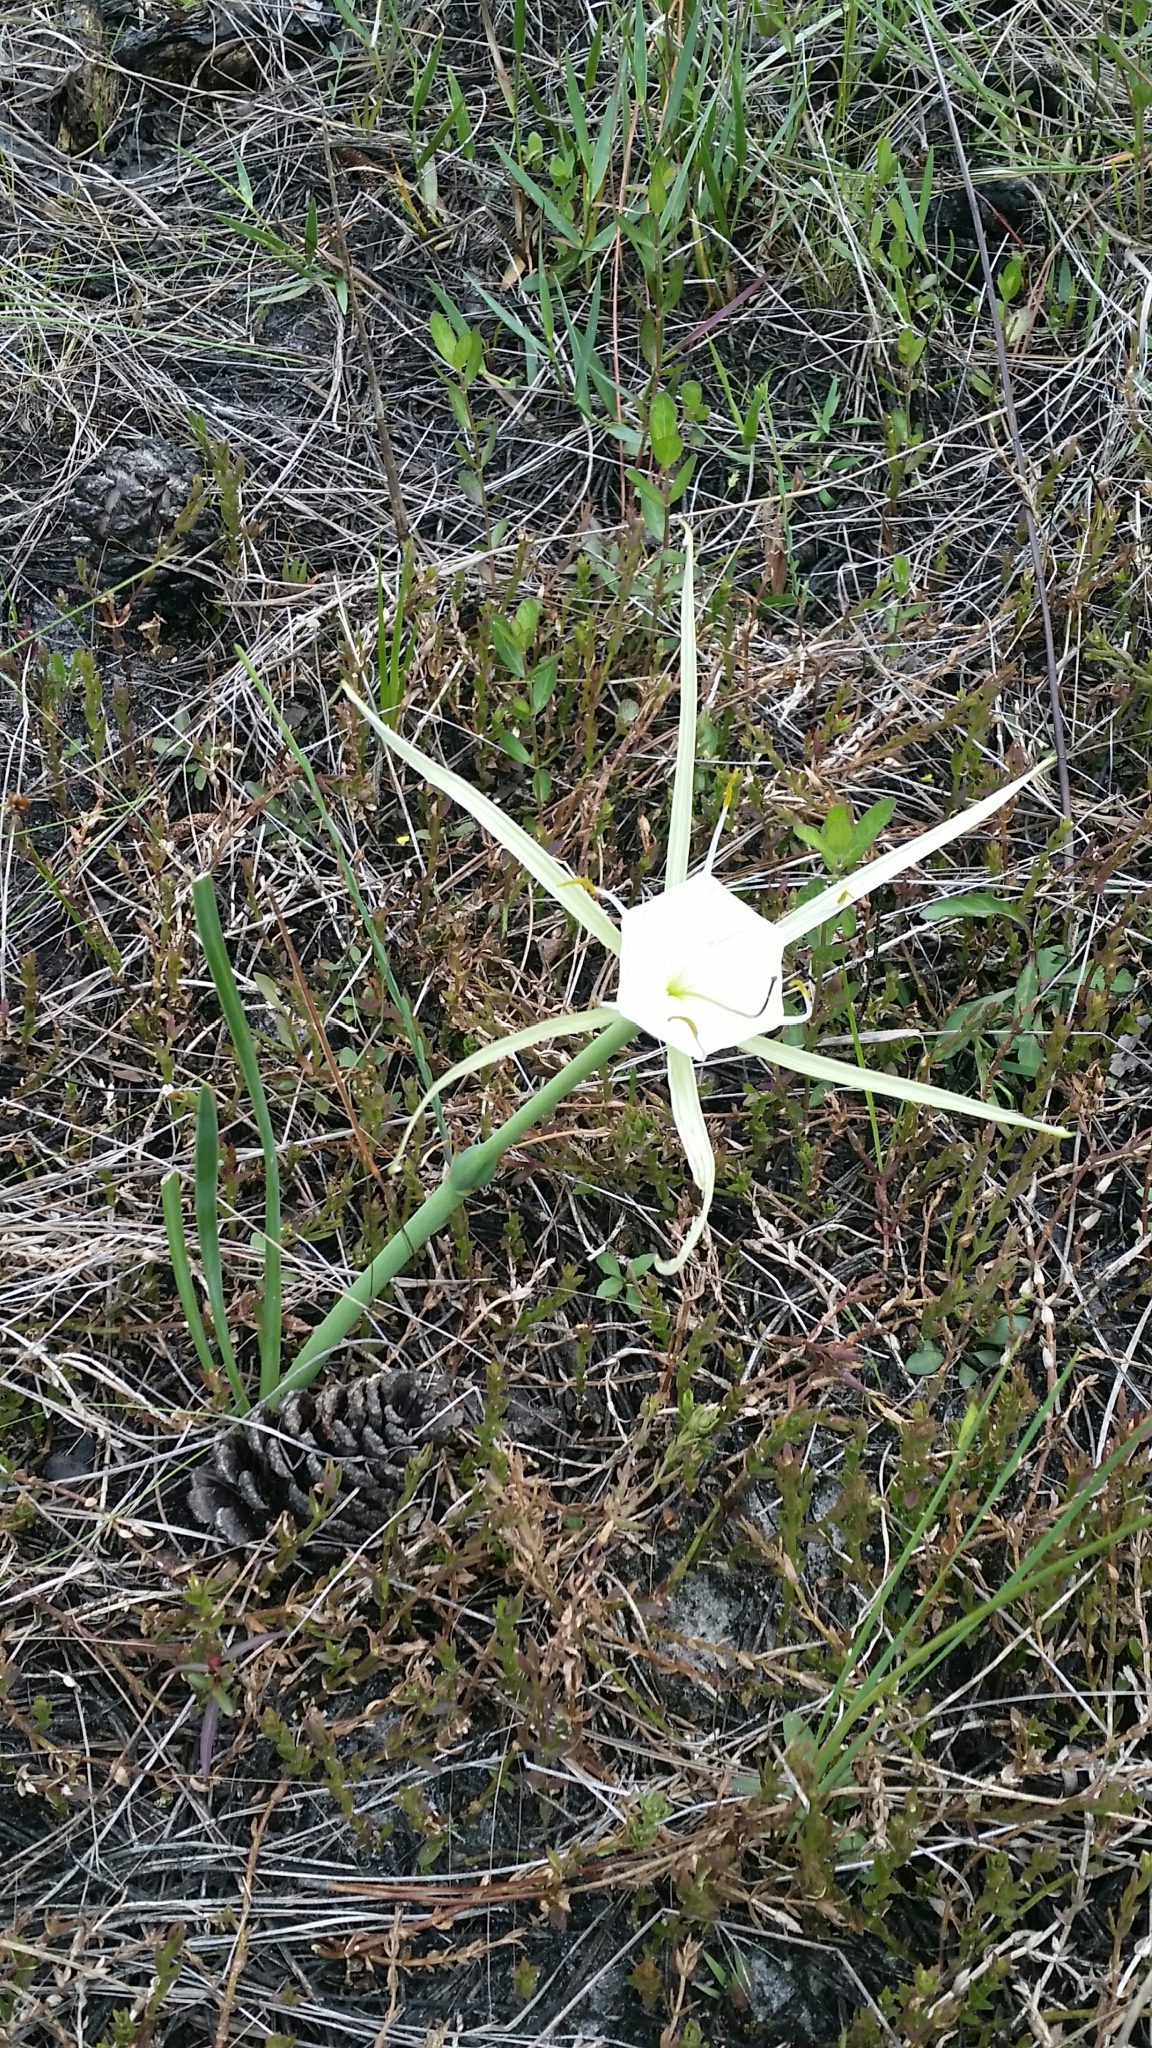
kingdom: Plantae
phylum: Tracheophyta
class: Liliopsida
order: Asparagales
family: Amaryllidaceae
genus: Hymenocallis
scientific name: Hymenocallis palmeri
